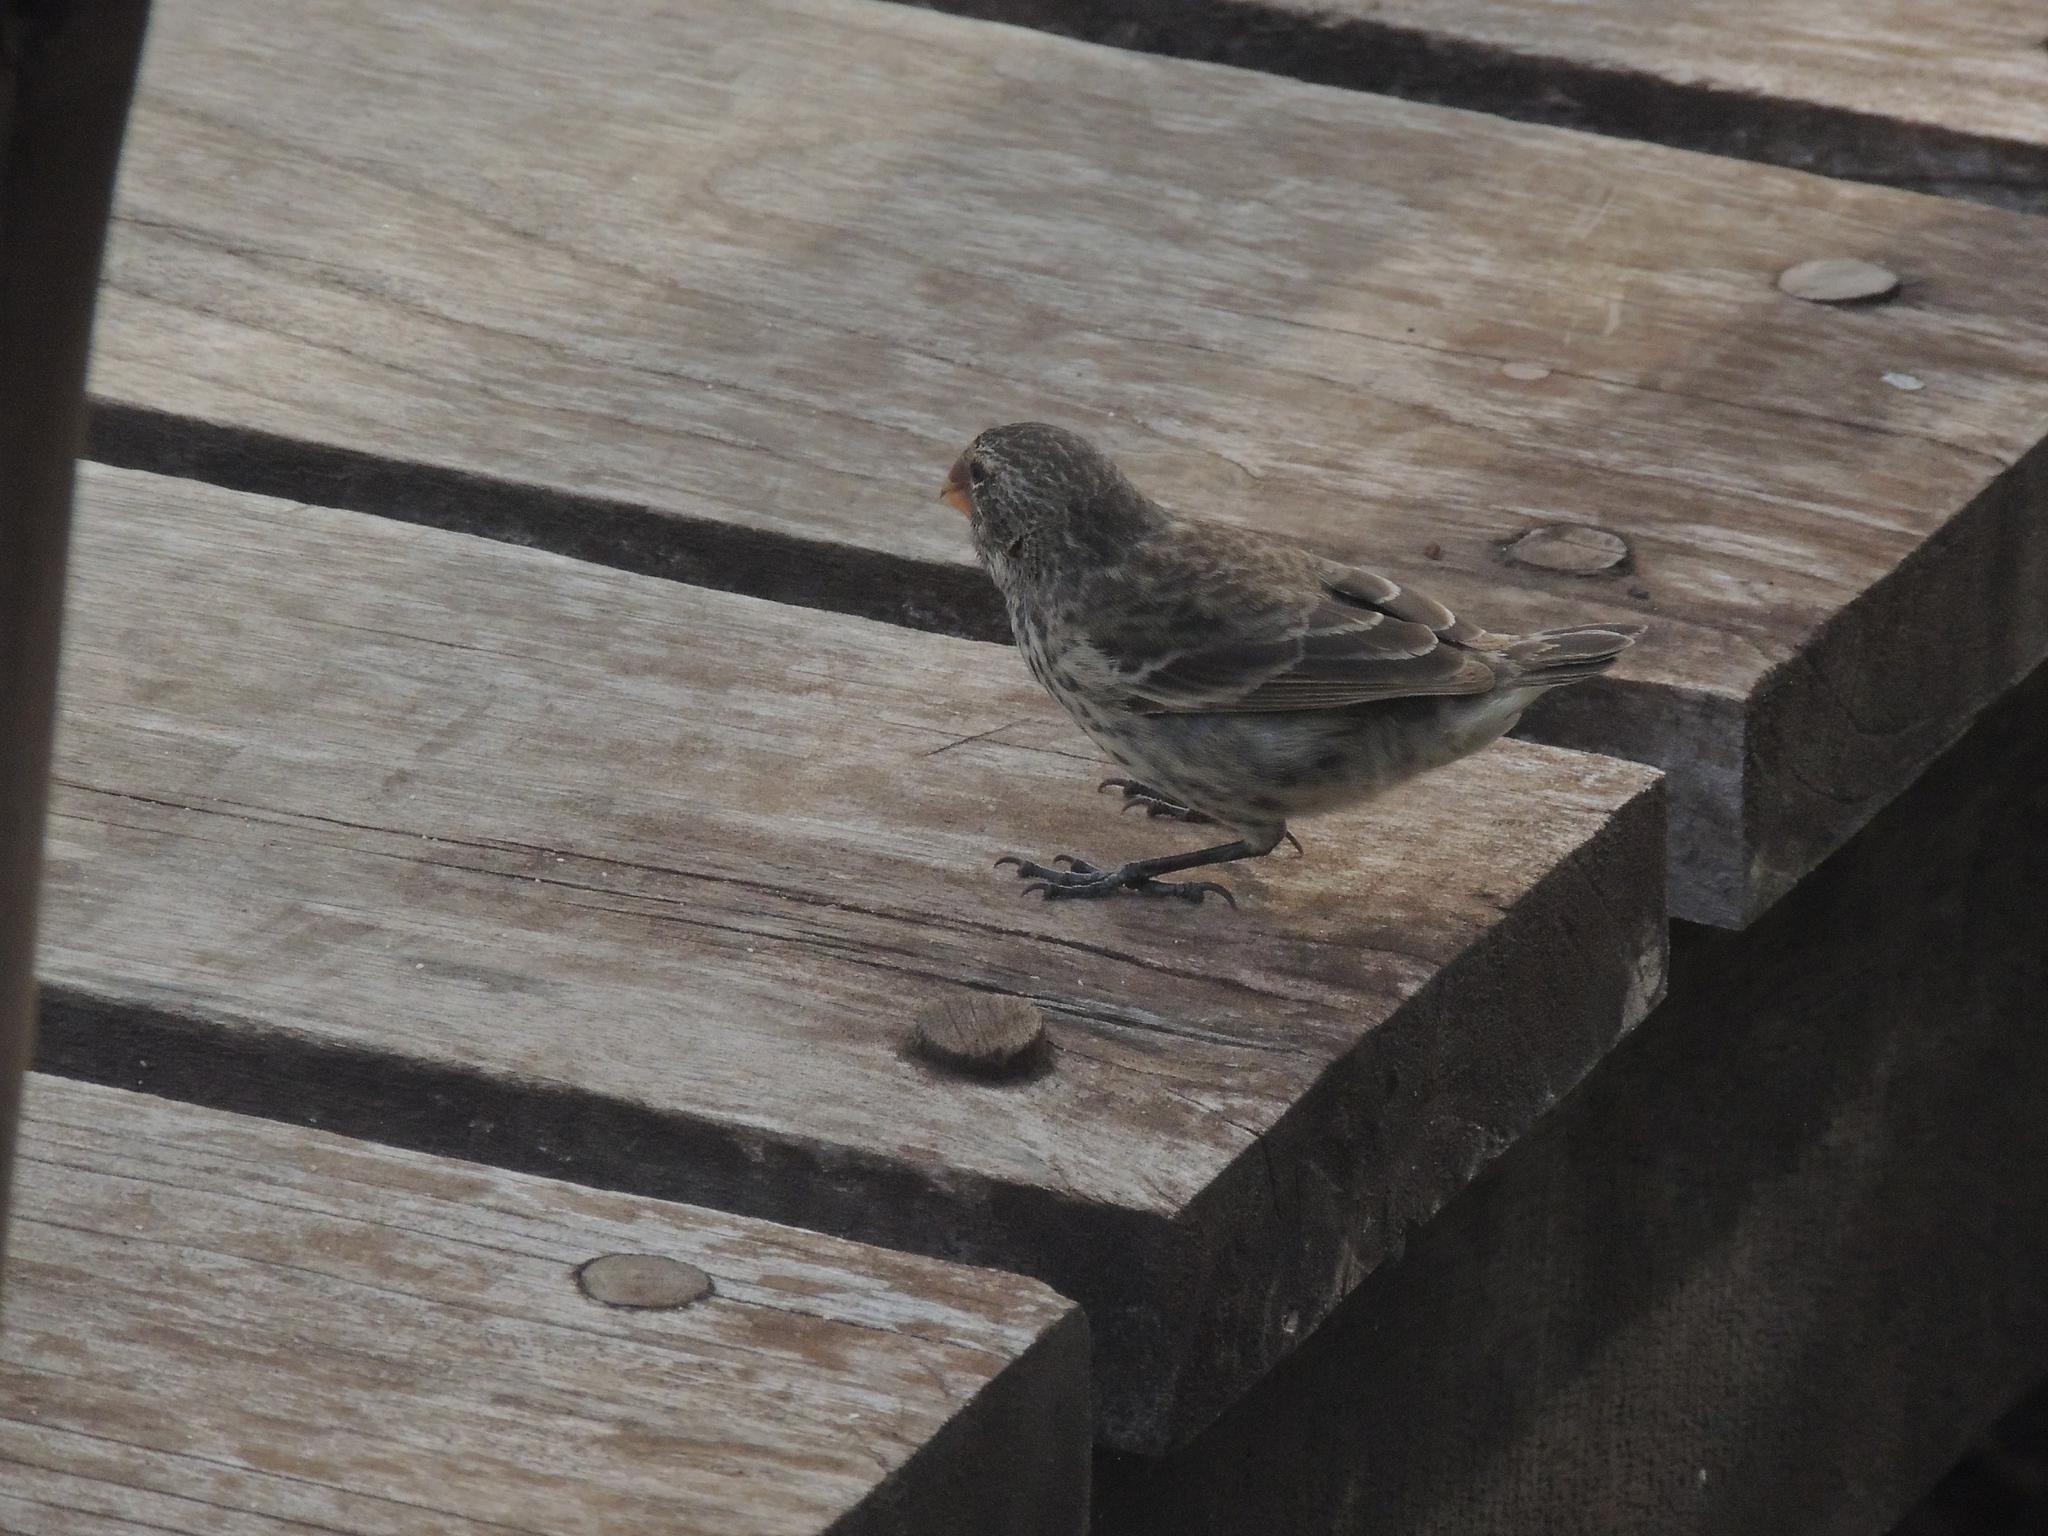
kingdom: Animalia
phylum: Chordata
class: Aves
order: Passeriformes
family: Thraupidae
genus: Geospiza
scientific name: Geospiza fortis
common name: Medium ground finch
